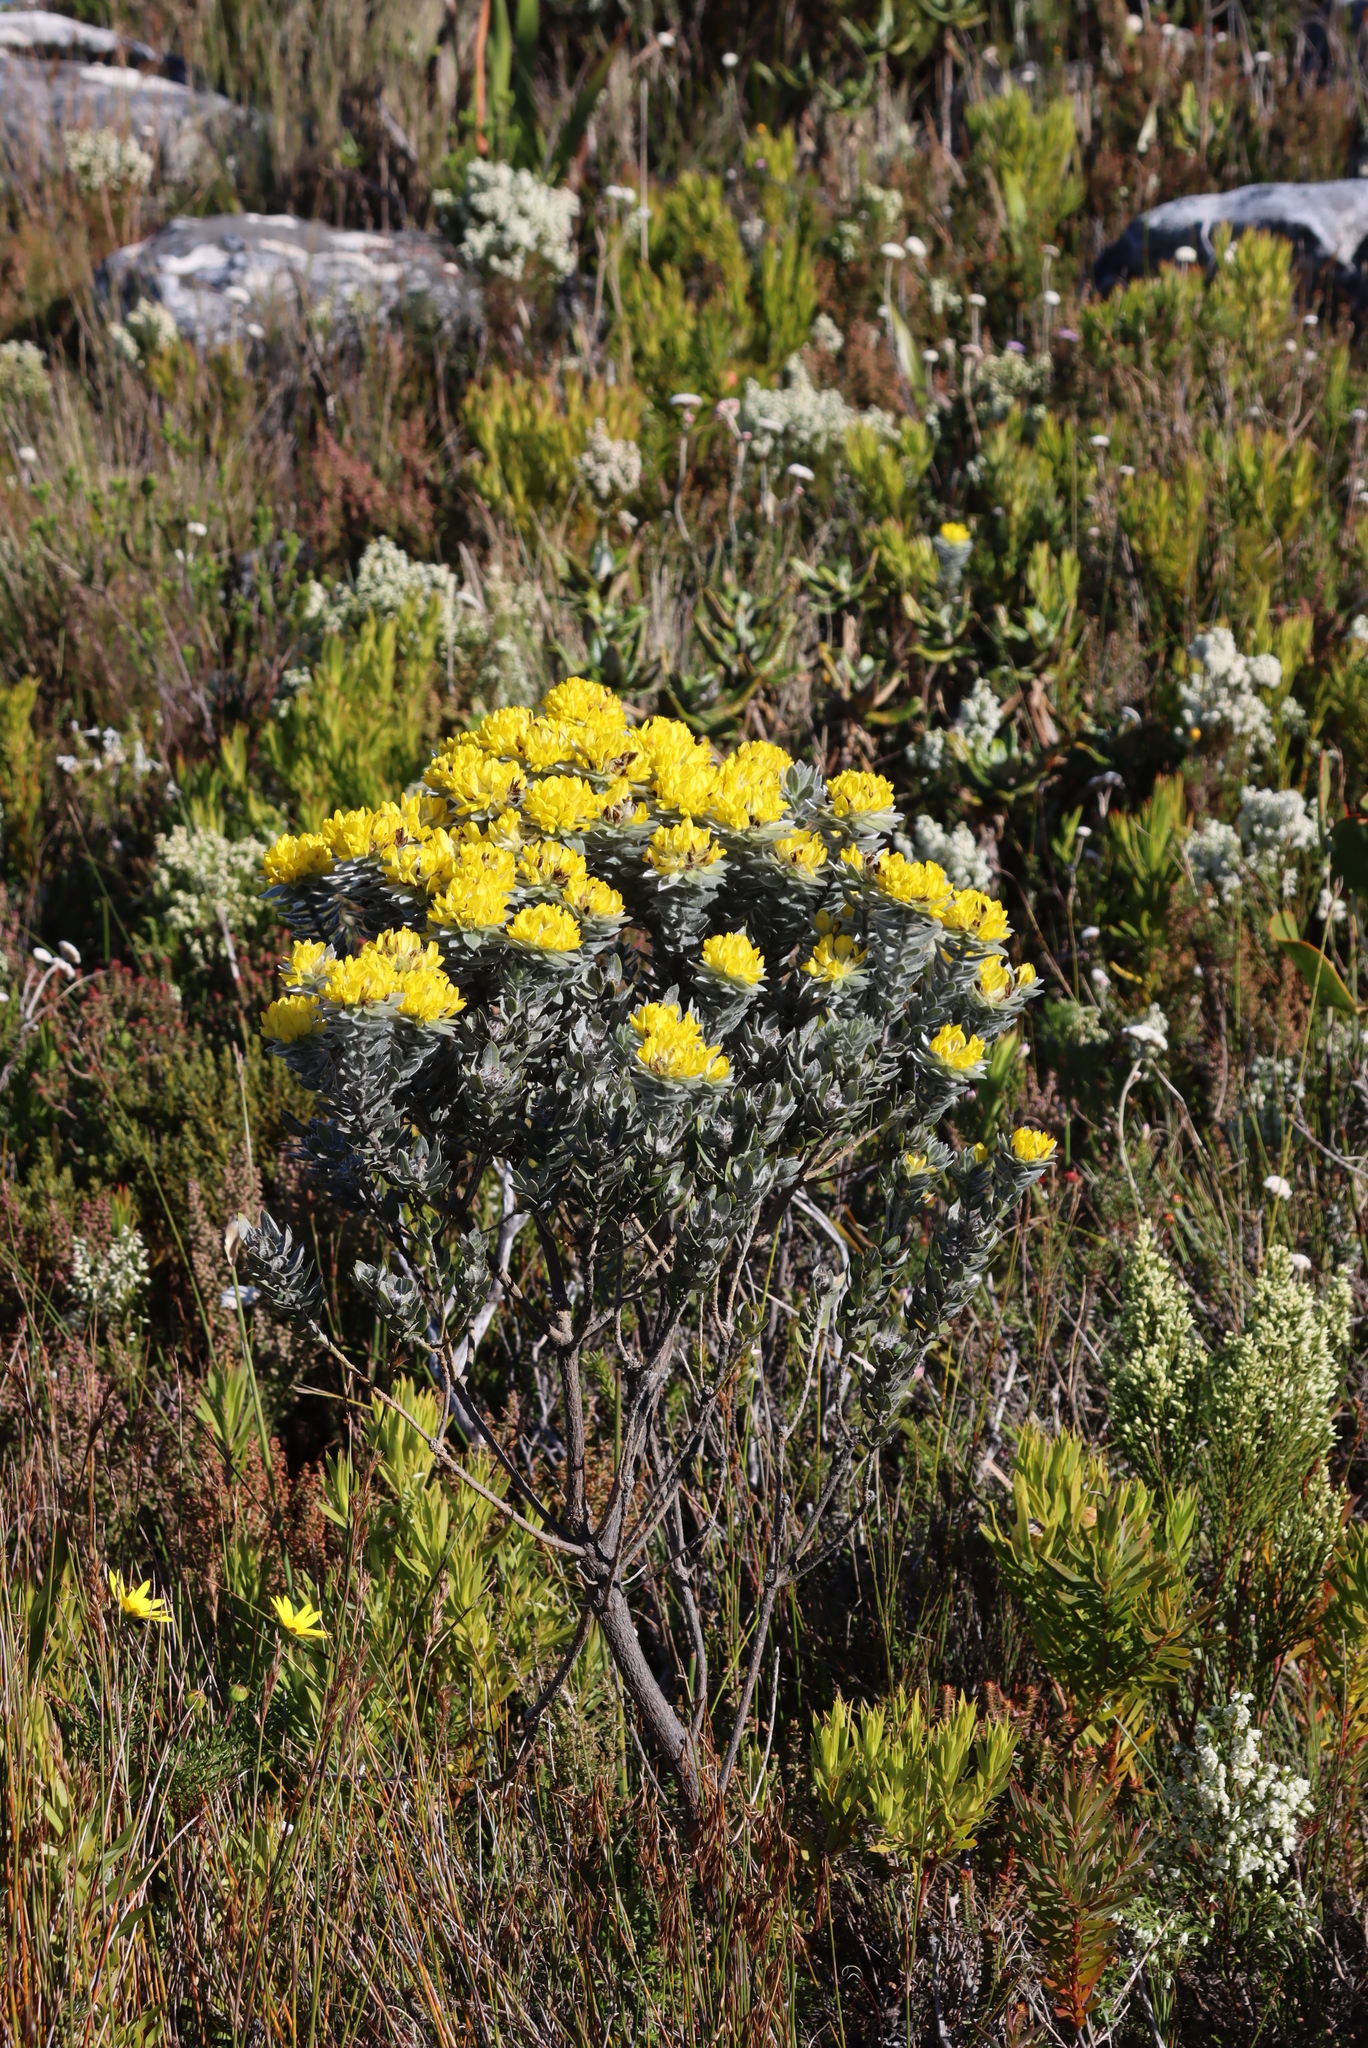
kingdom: Plantae
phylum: Tracheophyta
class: Magnoliopsida
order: Fabales
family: Fabaceae
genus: Xiphotheca
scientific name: Xiphotheca fruticosa
